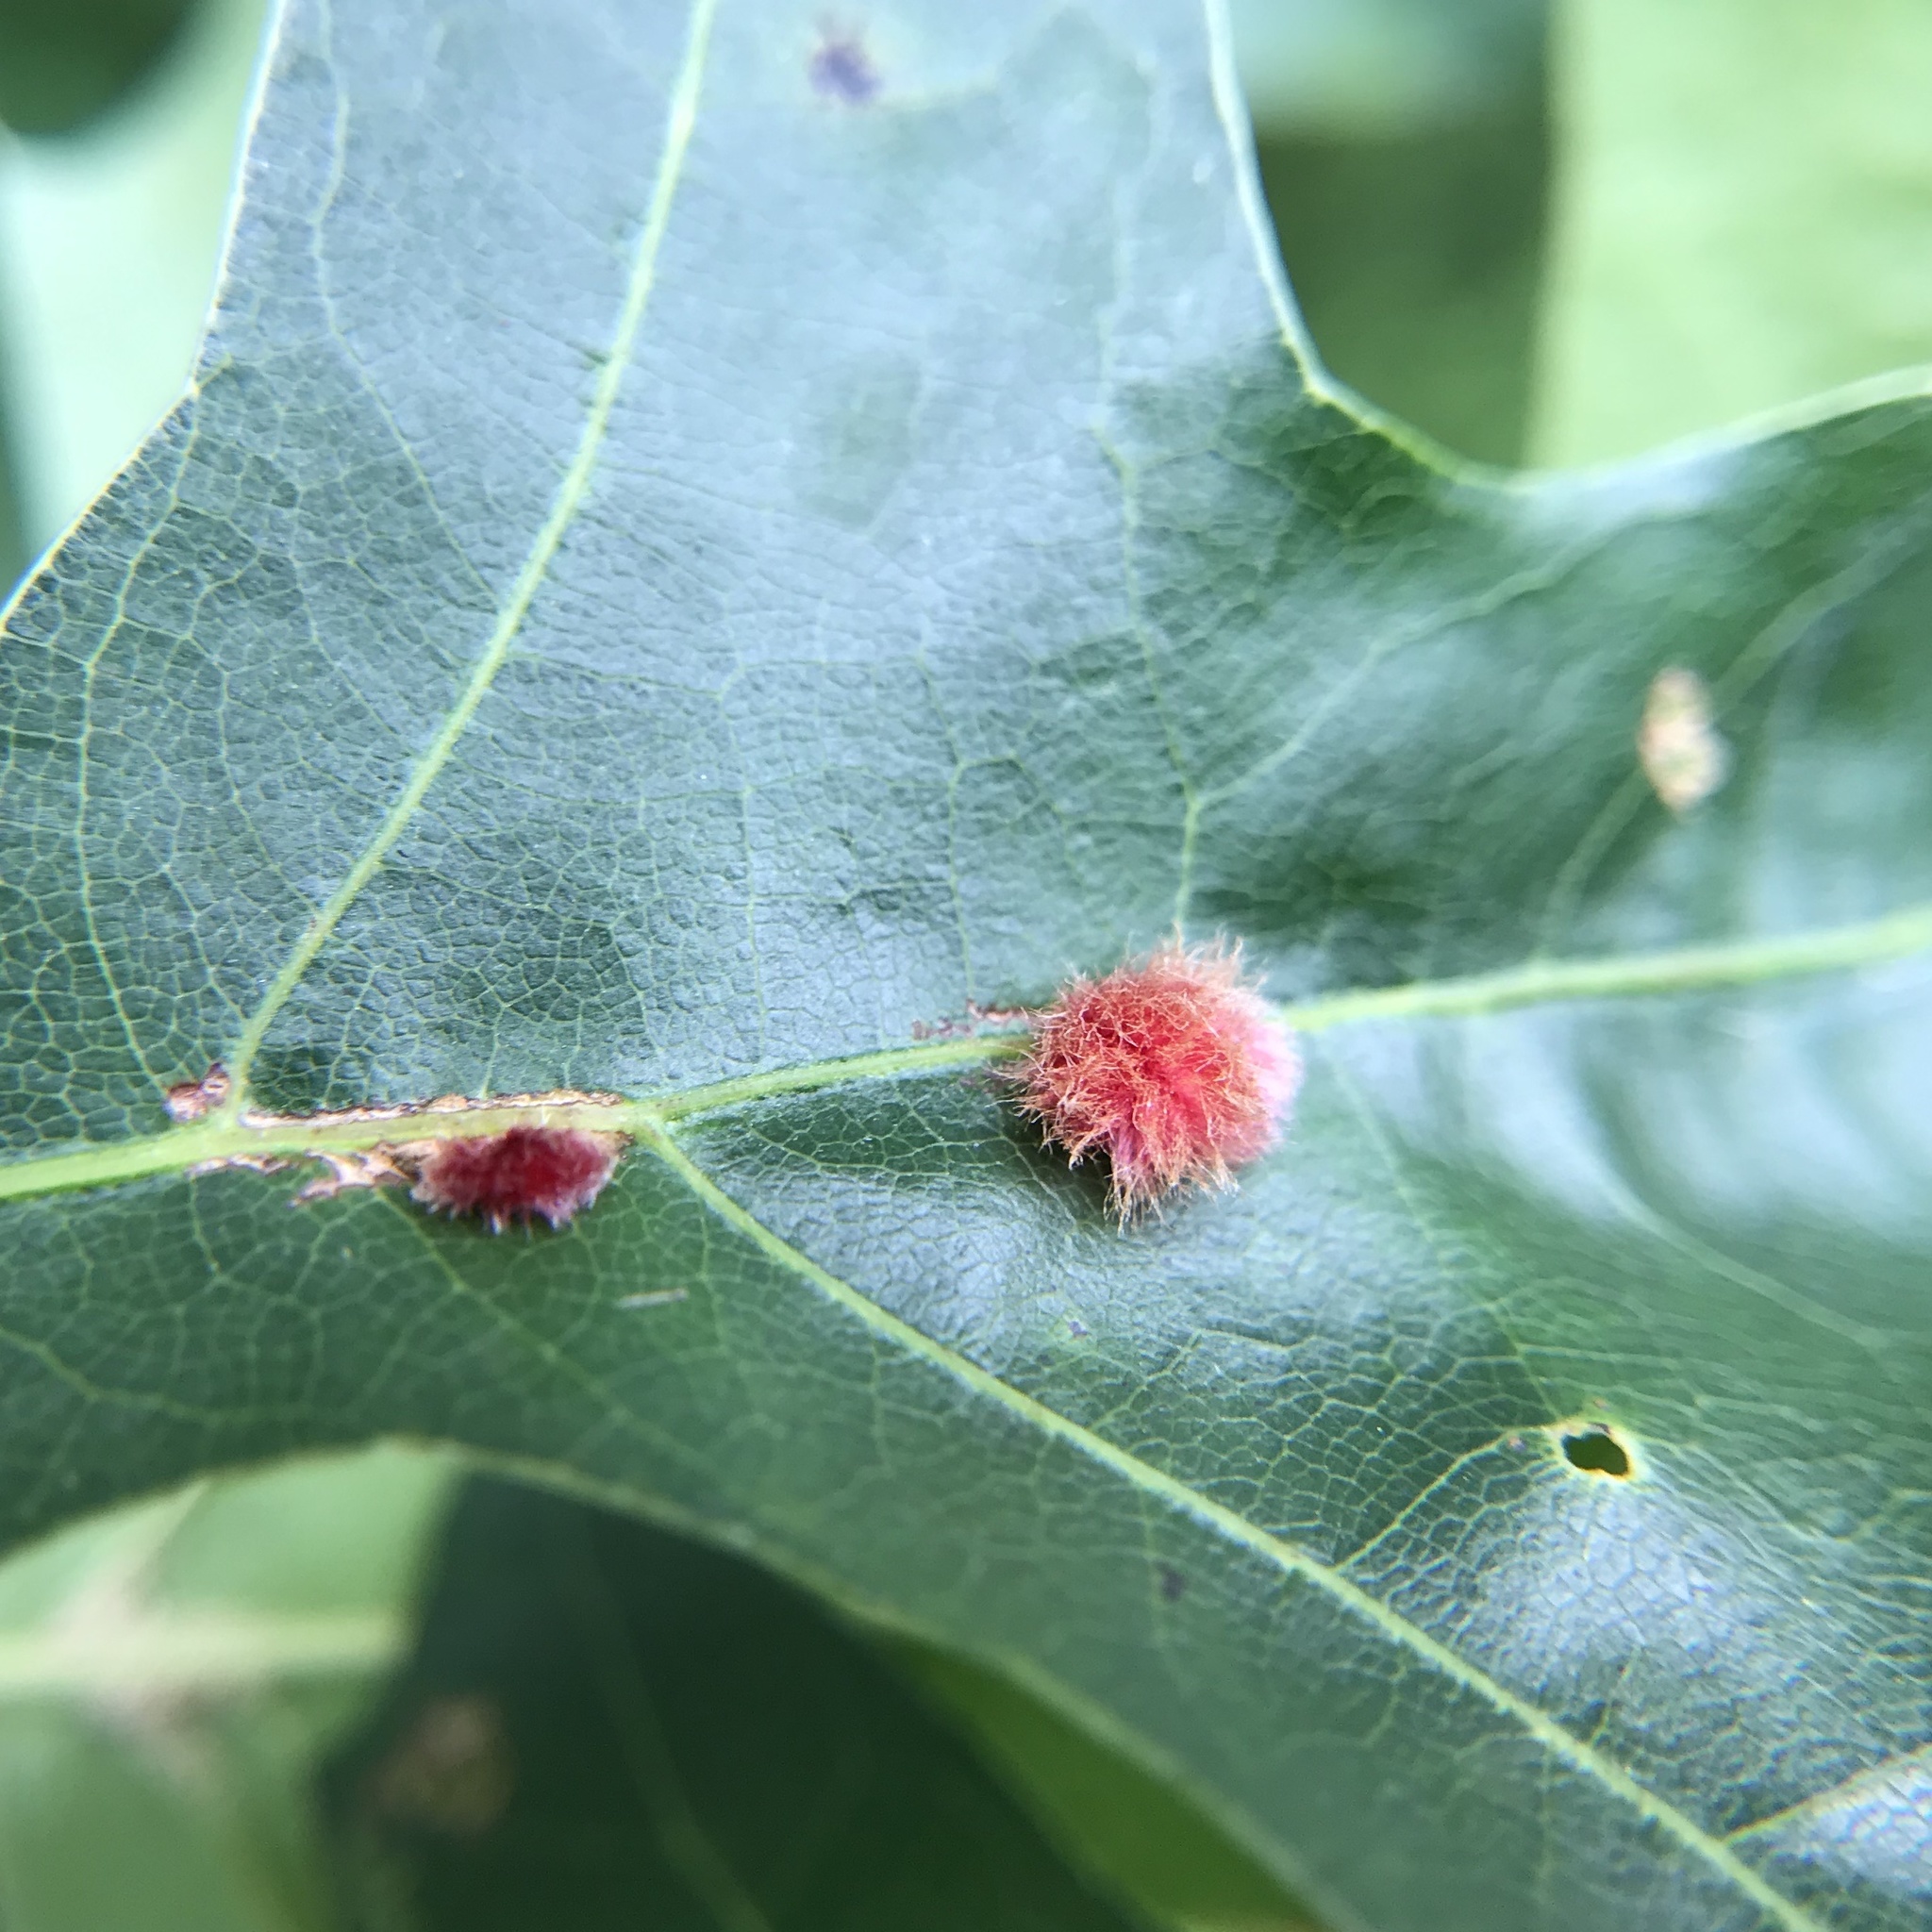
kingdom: Animalia
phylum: Arthropoda
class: Insecta
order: Hymenoptera
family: Cynipidae
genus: Callirhytis
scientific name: Callirhytis
